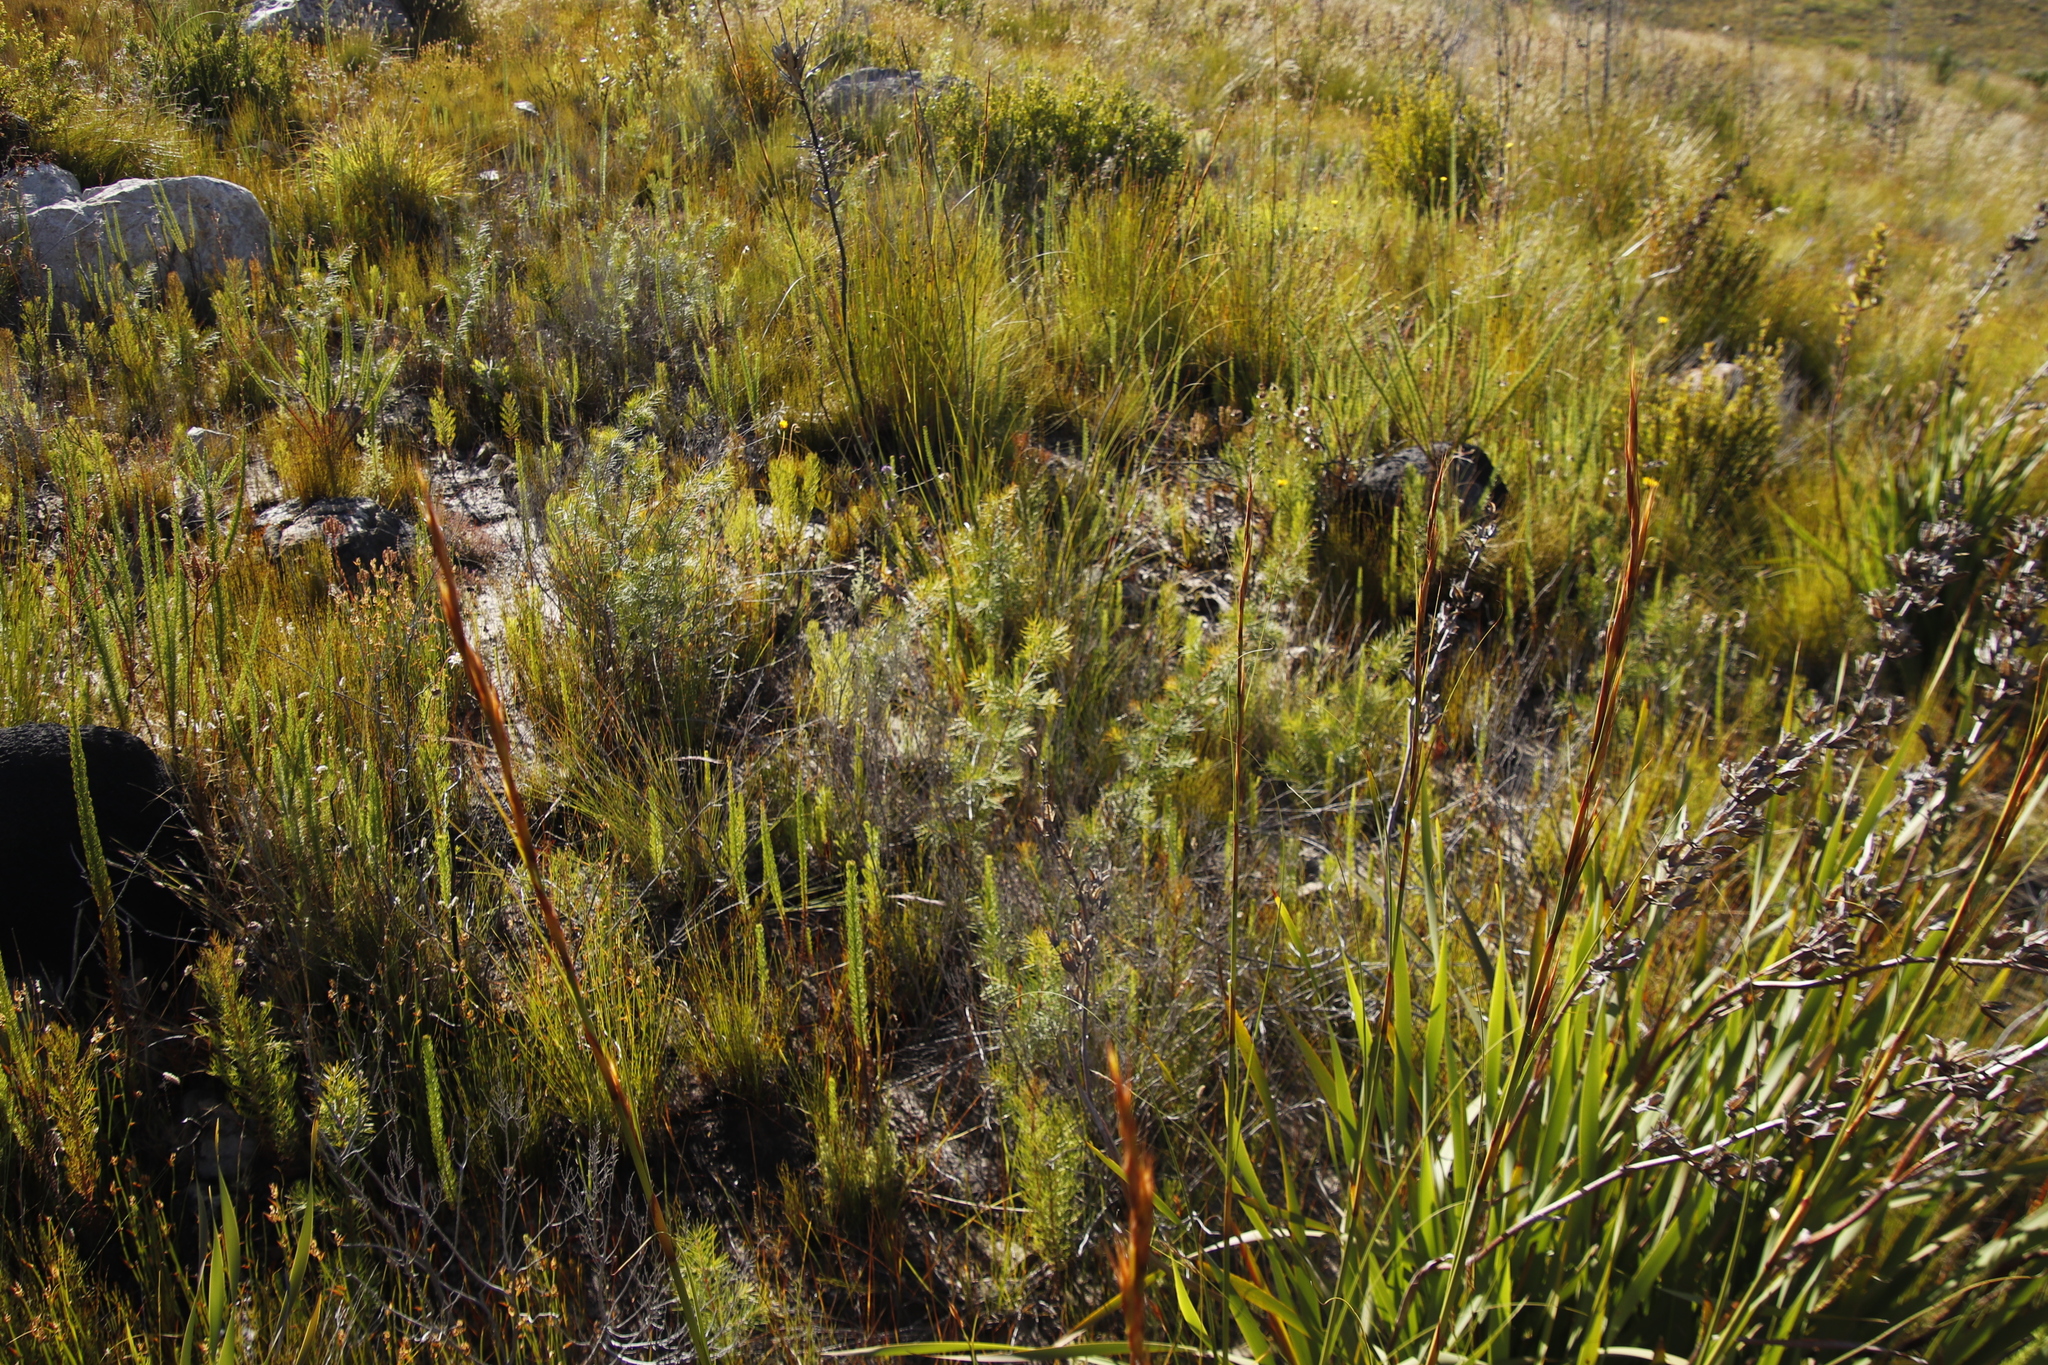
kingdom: Plantae
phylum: Tracheophyta
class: Magnoliopsida
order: Proteales
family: Proteaceae
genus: Hakea
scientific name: Hakea sericea
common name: Needle bush
